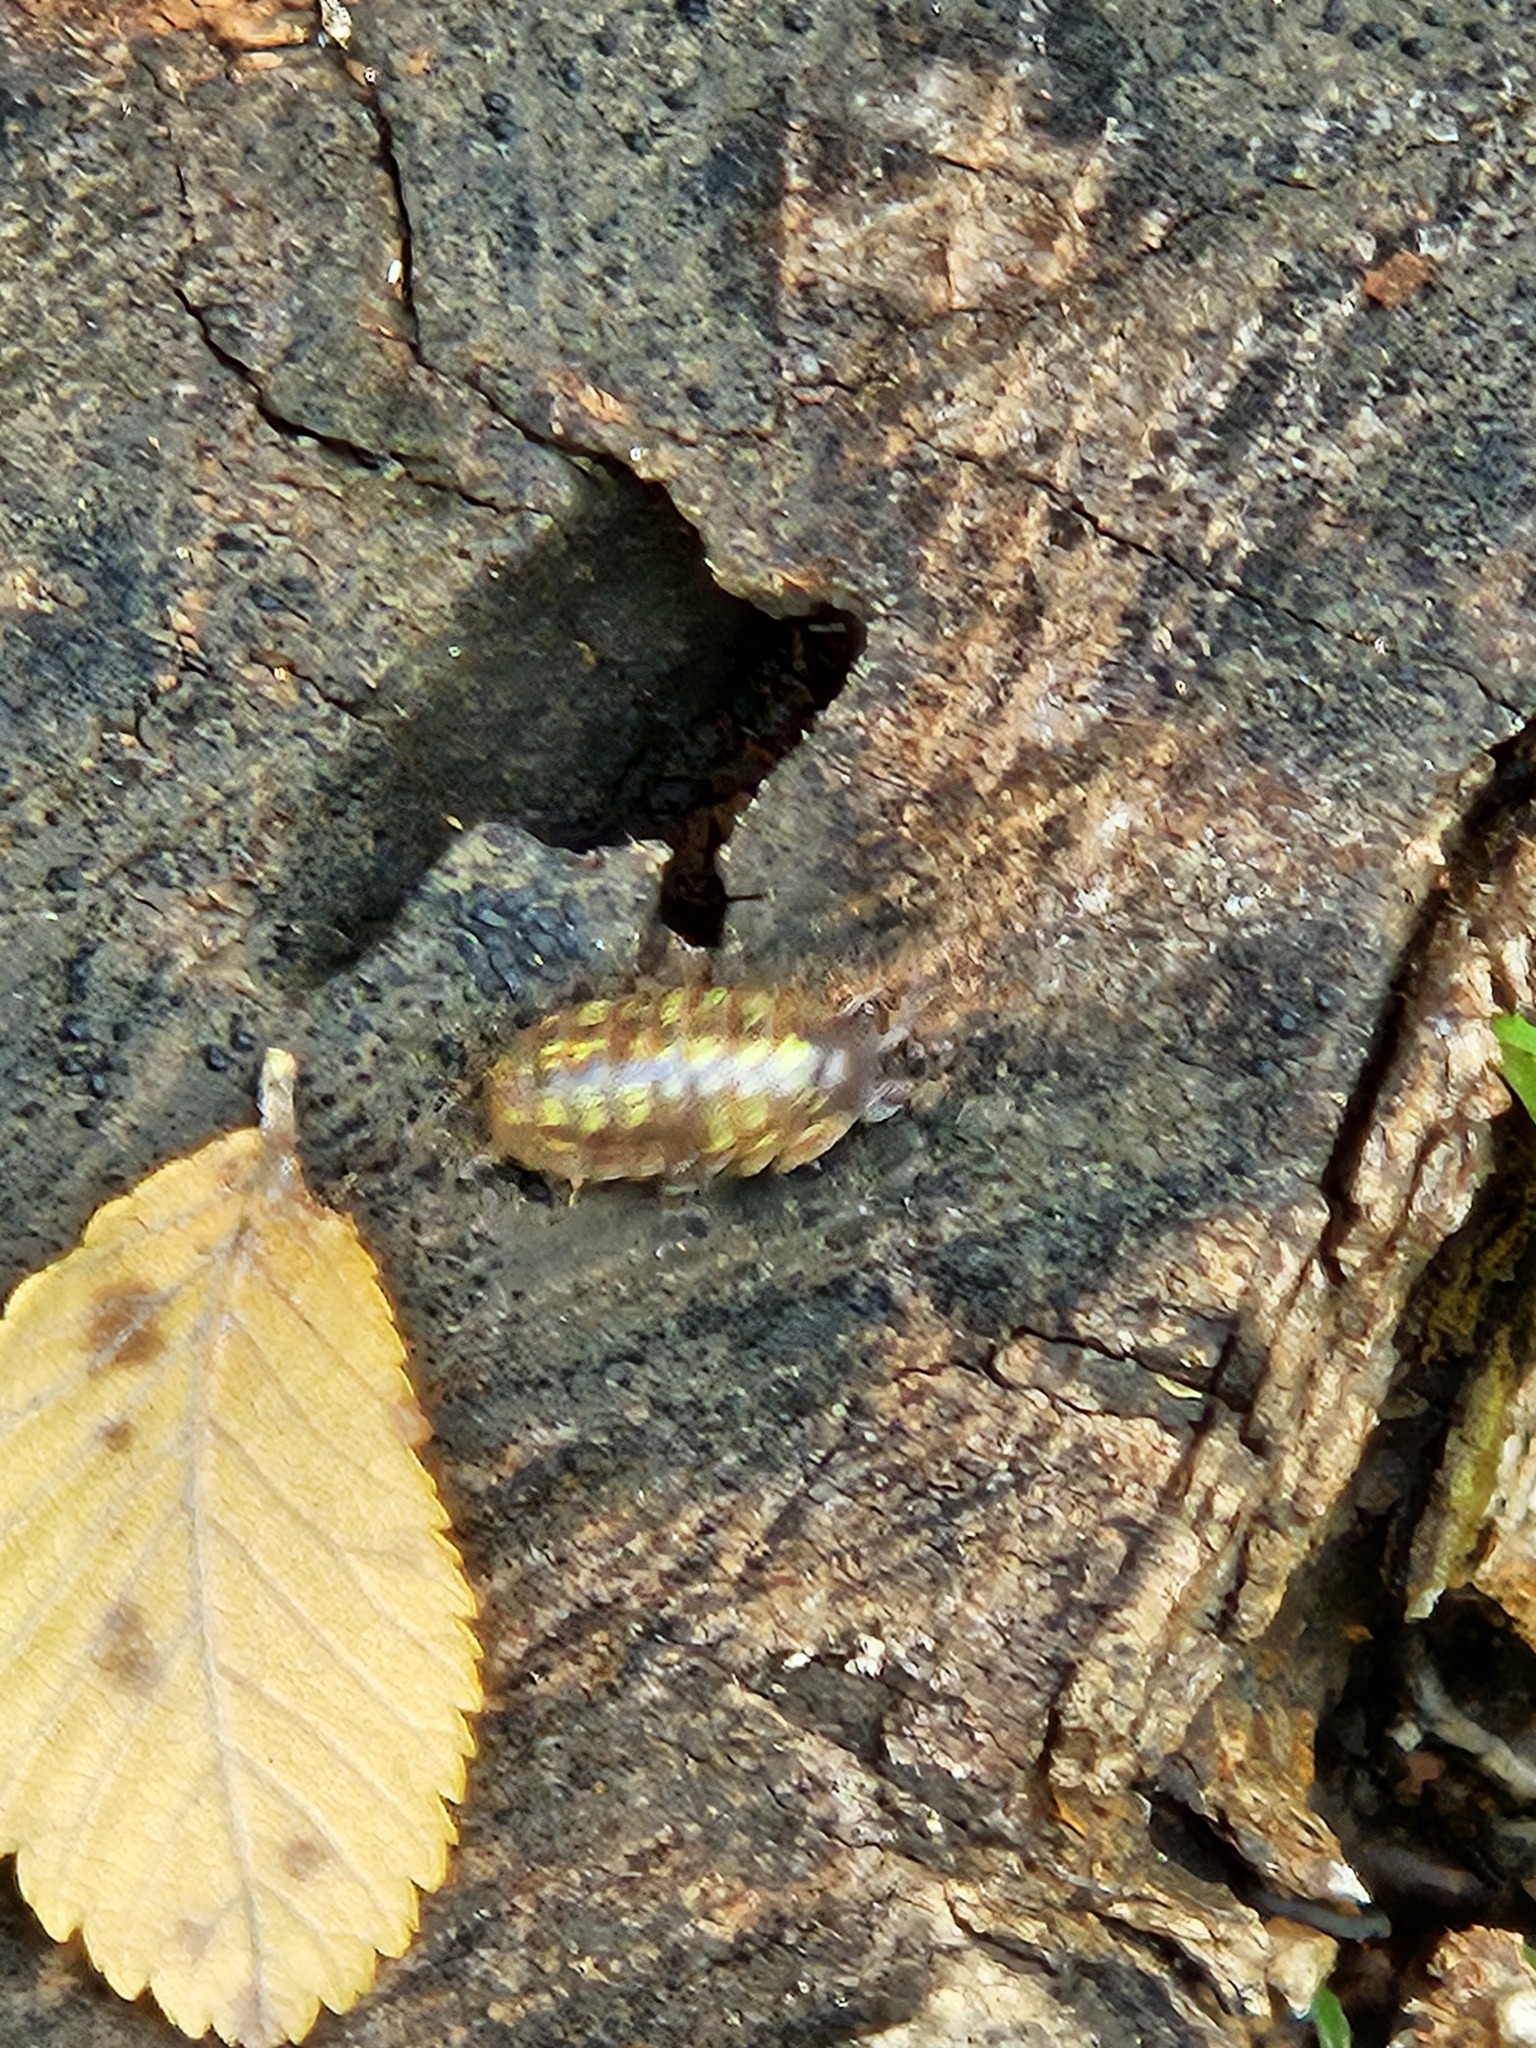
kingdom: Animalia
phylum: Arthropoda
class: Malacostraca
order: Isopoda
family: Armadillidiidae
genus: Armadillidium
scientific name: Armadillidium vulgare
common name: Common pill woodlouse
